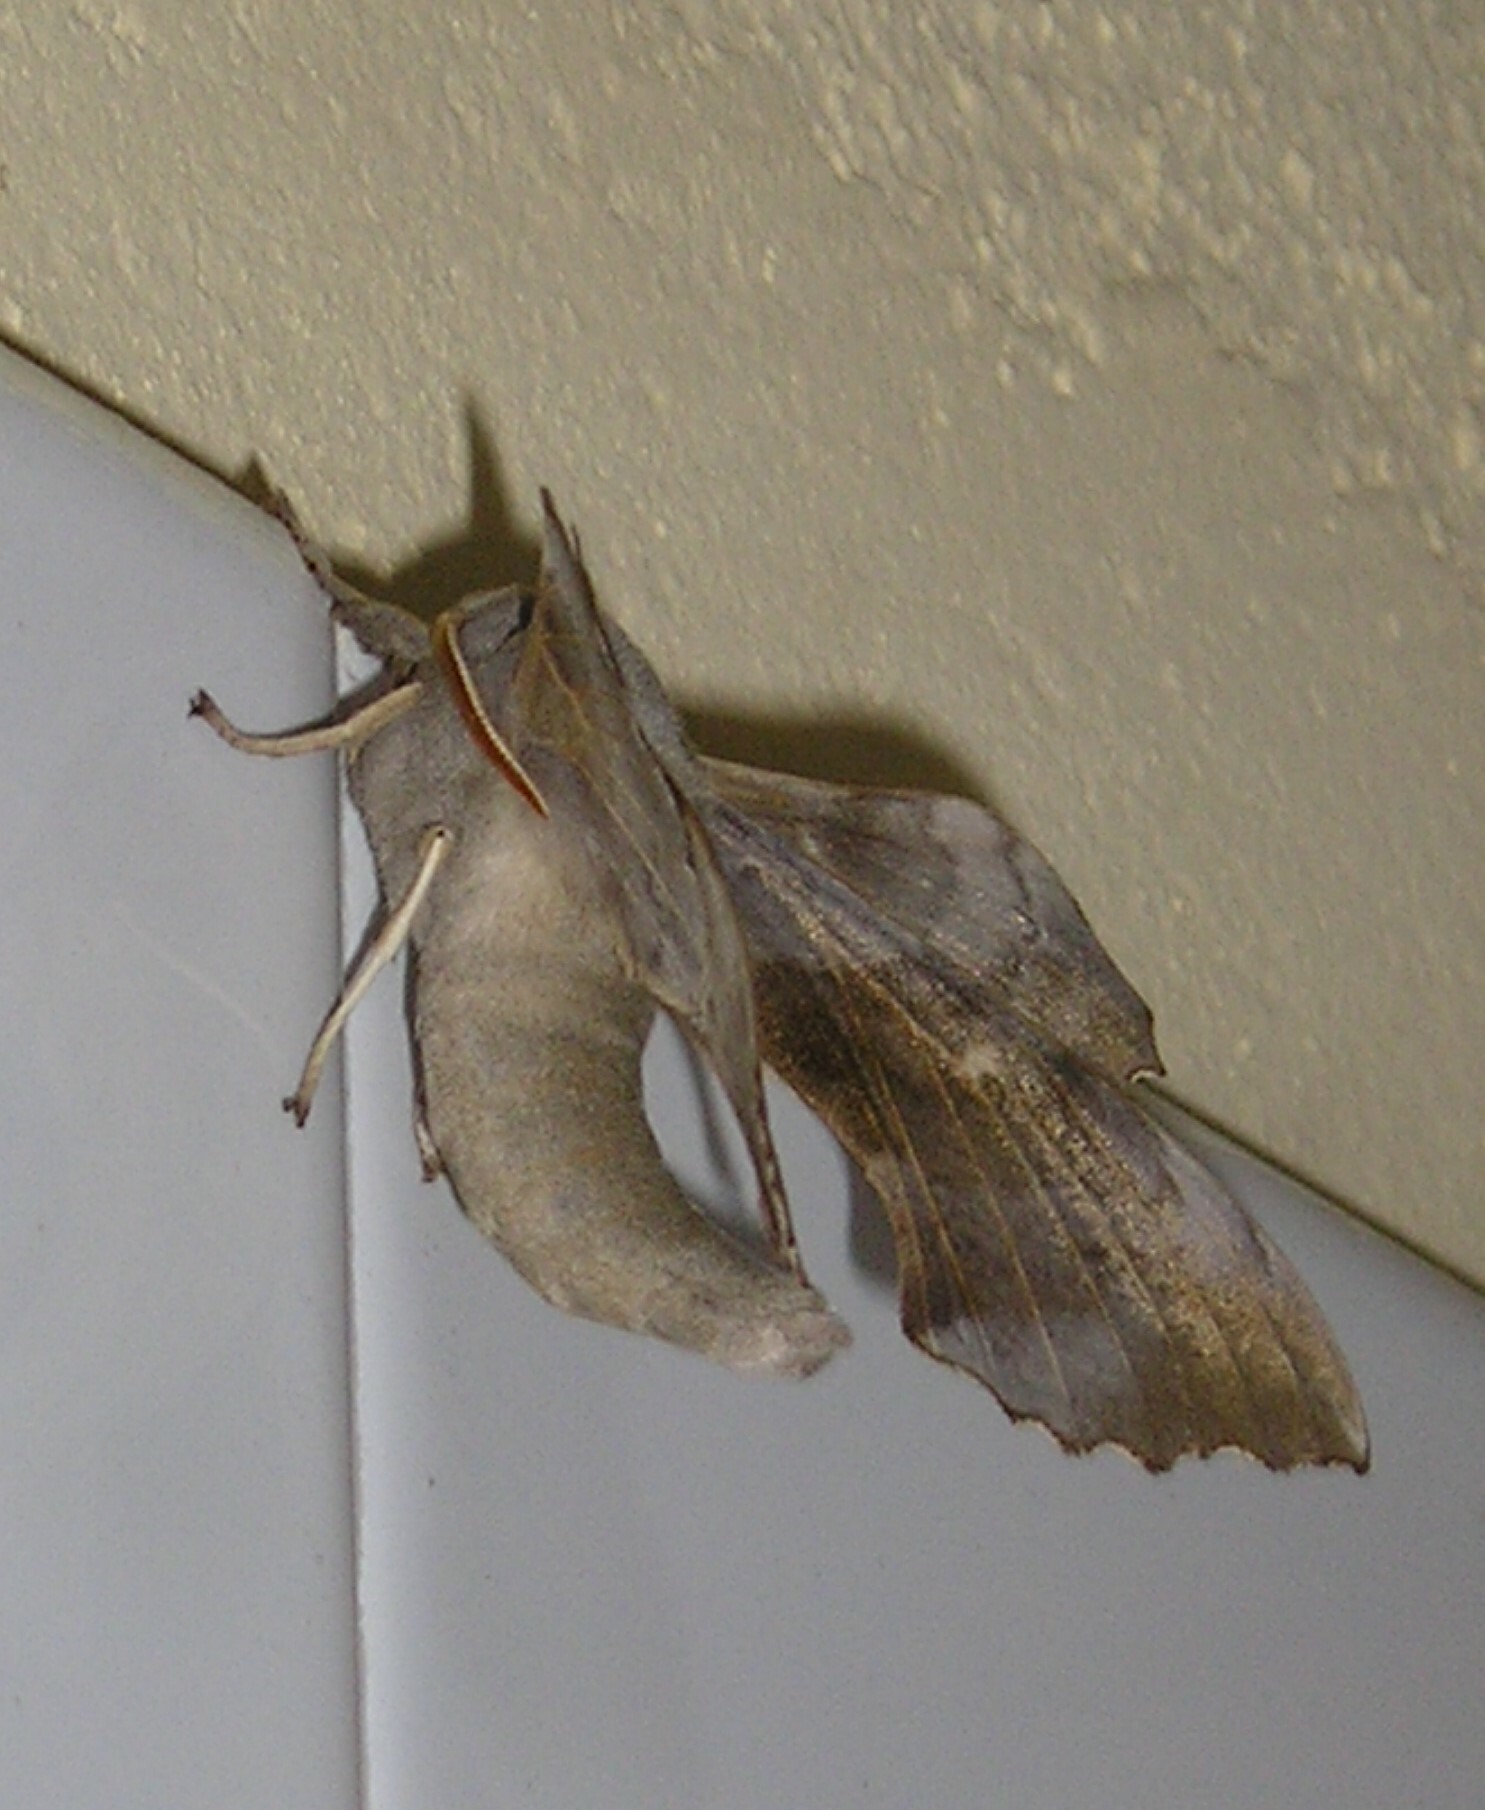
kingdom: Animalia
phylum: Arthropoda
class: Insecta
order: Lepidoptera
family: Sphingidae
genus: Laothoe
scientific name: Laothoe populi
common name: Poplar hawk-moth
